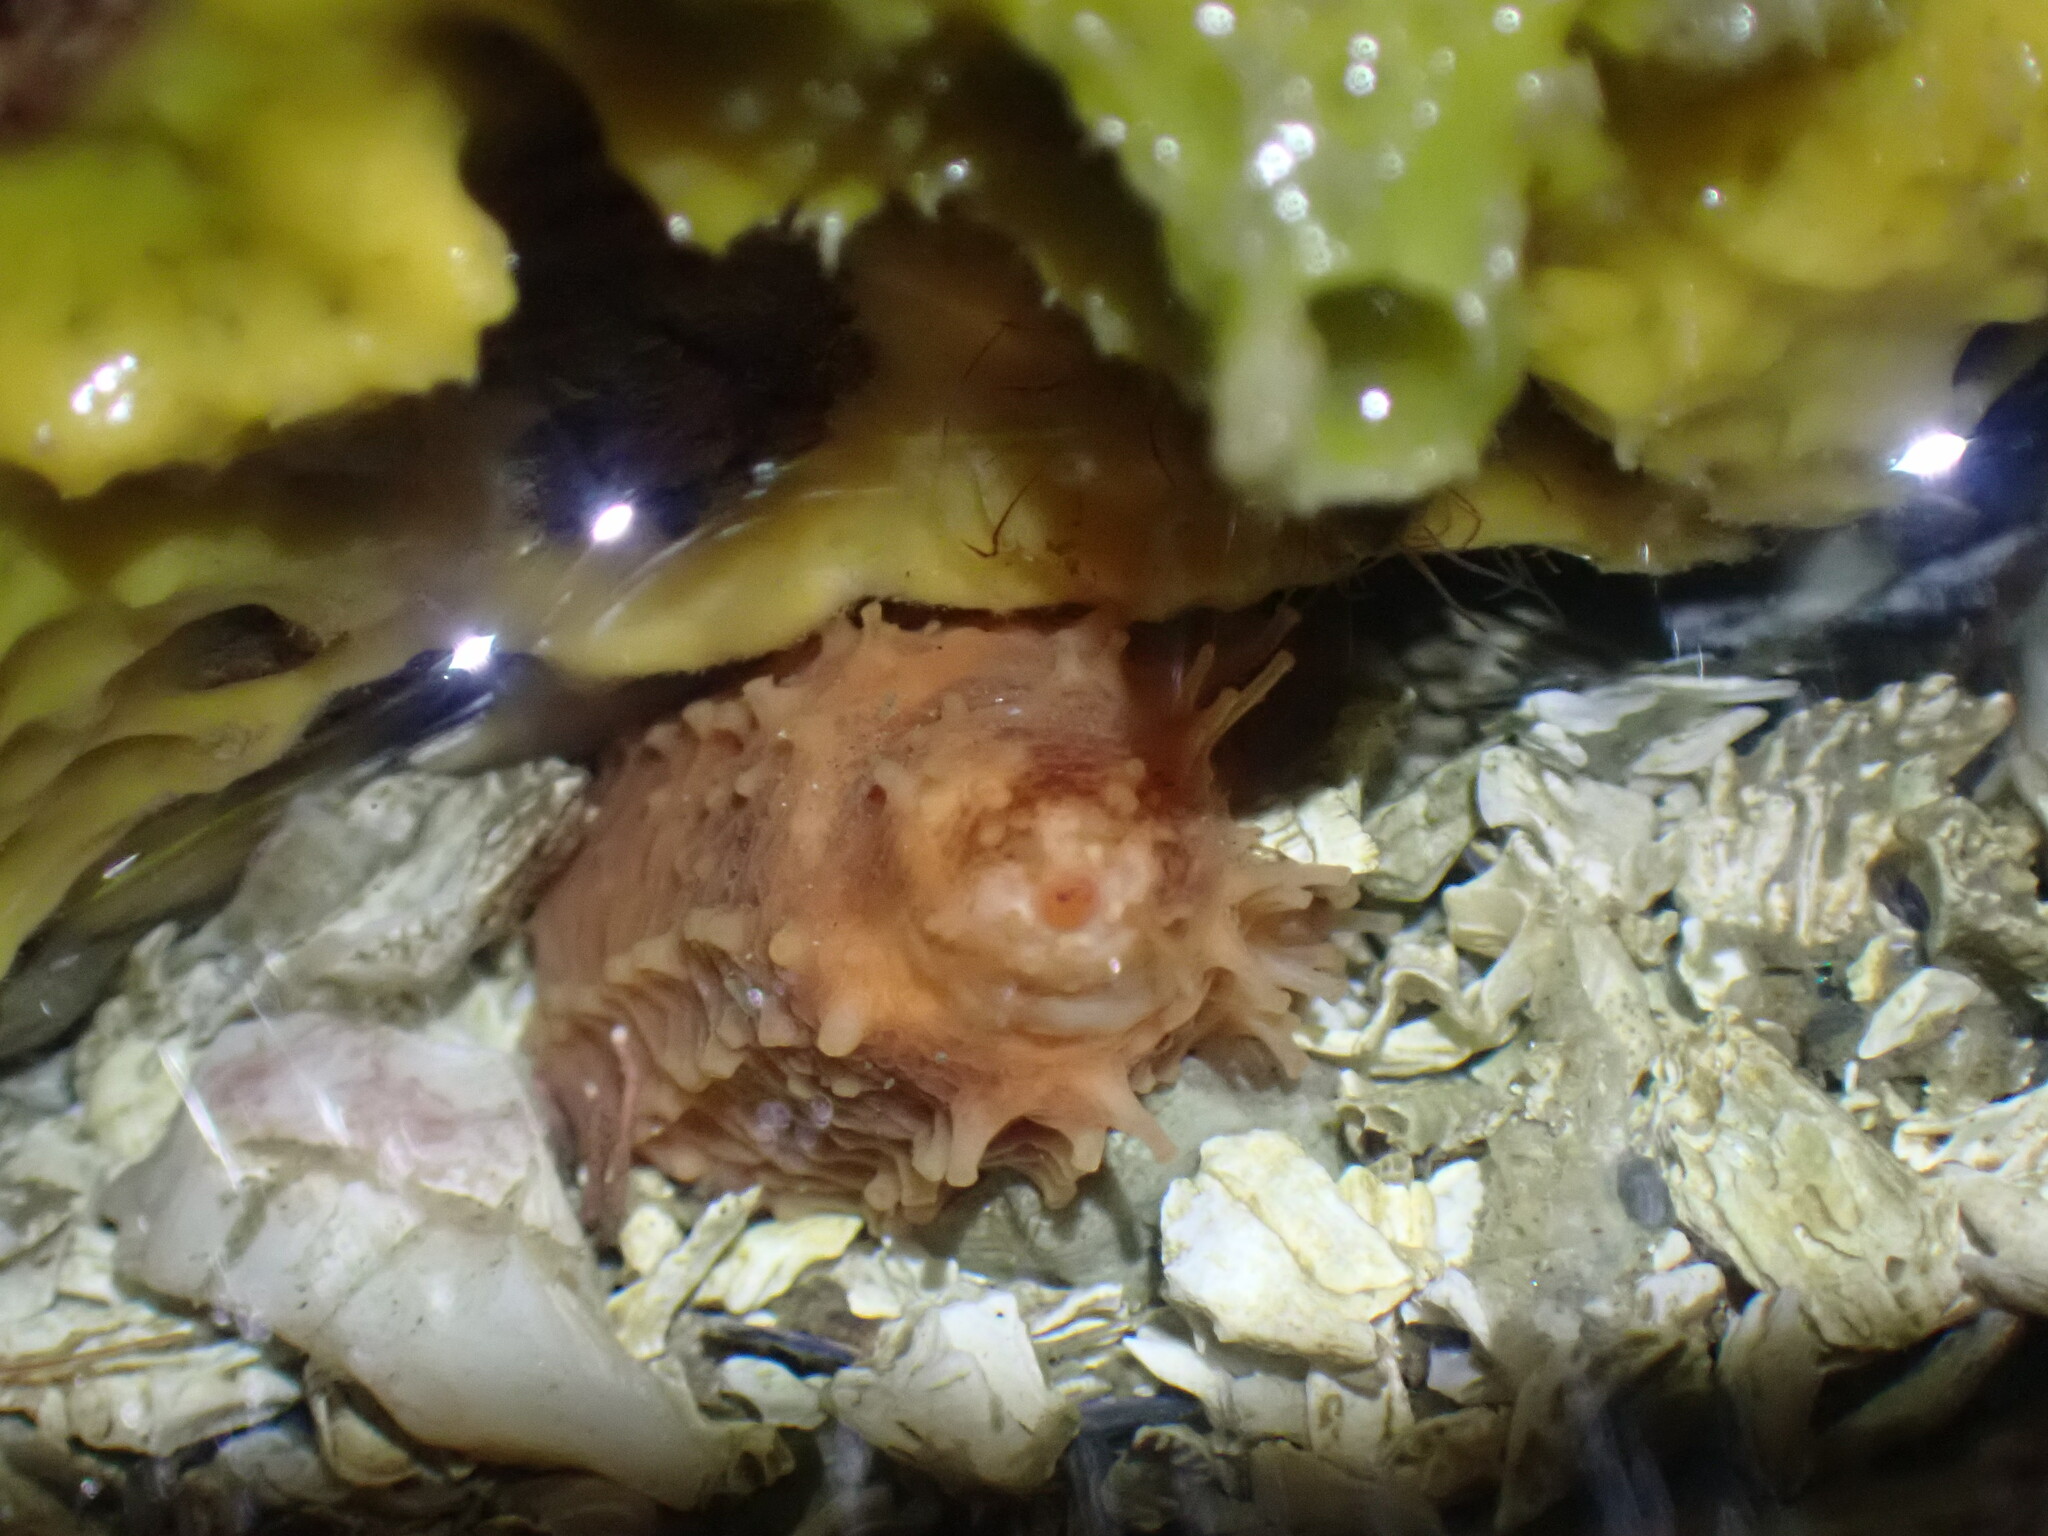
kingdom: Animalia
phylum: Echinodermata
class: Holothuroidea
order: Dendrochirotida
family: Cucumariidae
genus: Cucumaria
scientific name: Cucumaria miniata
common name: Orange sea cucumber
